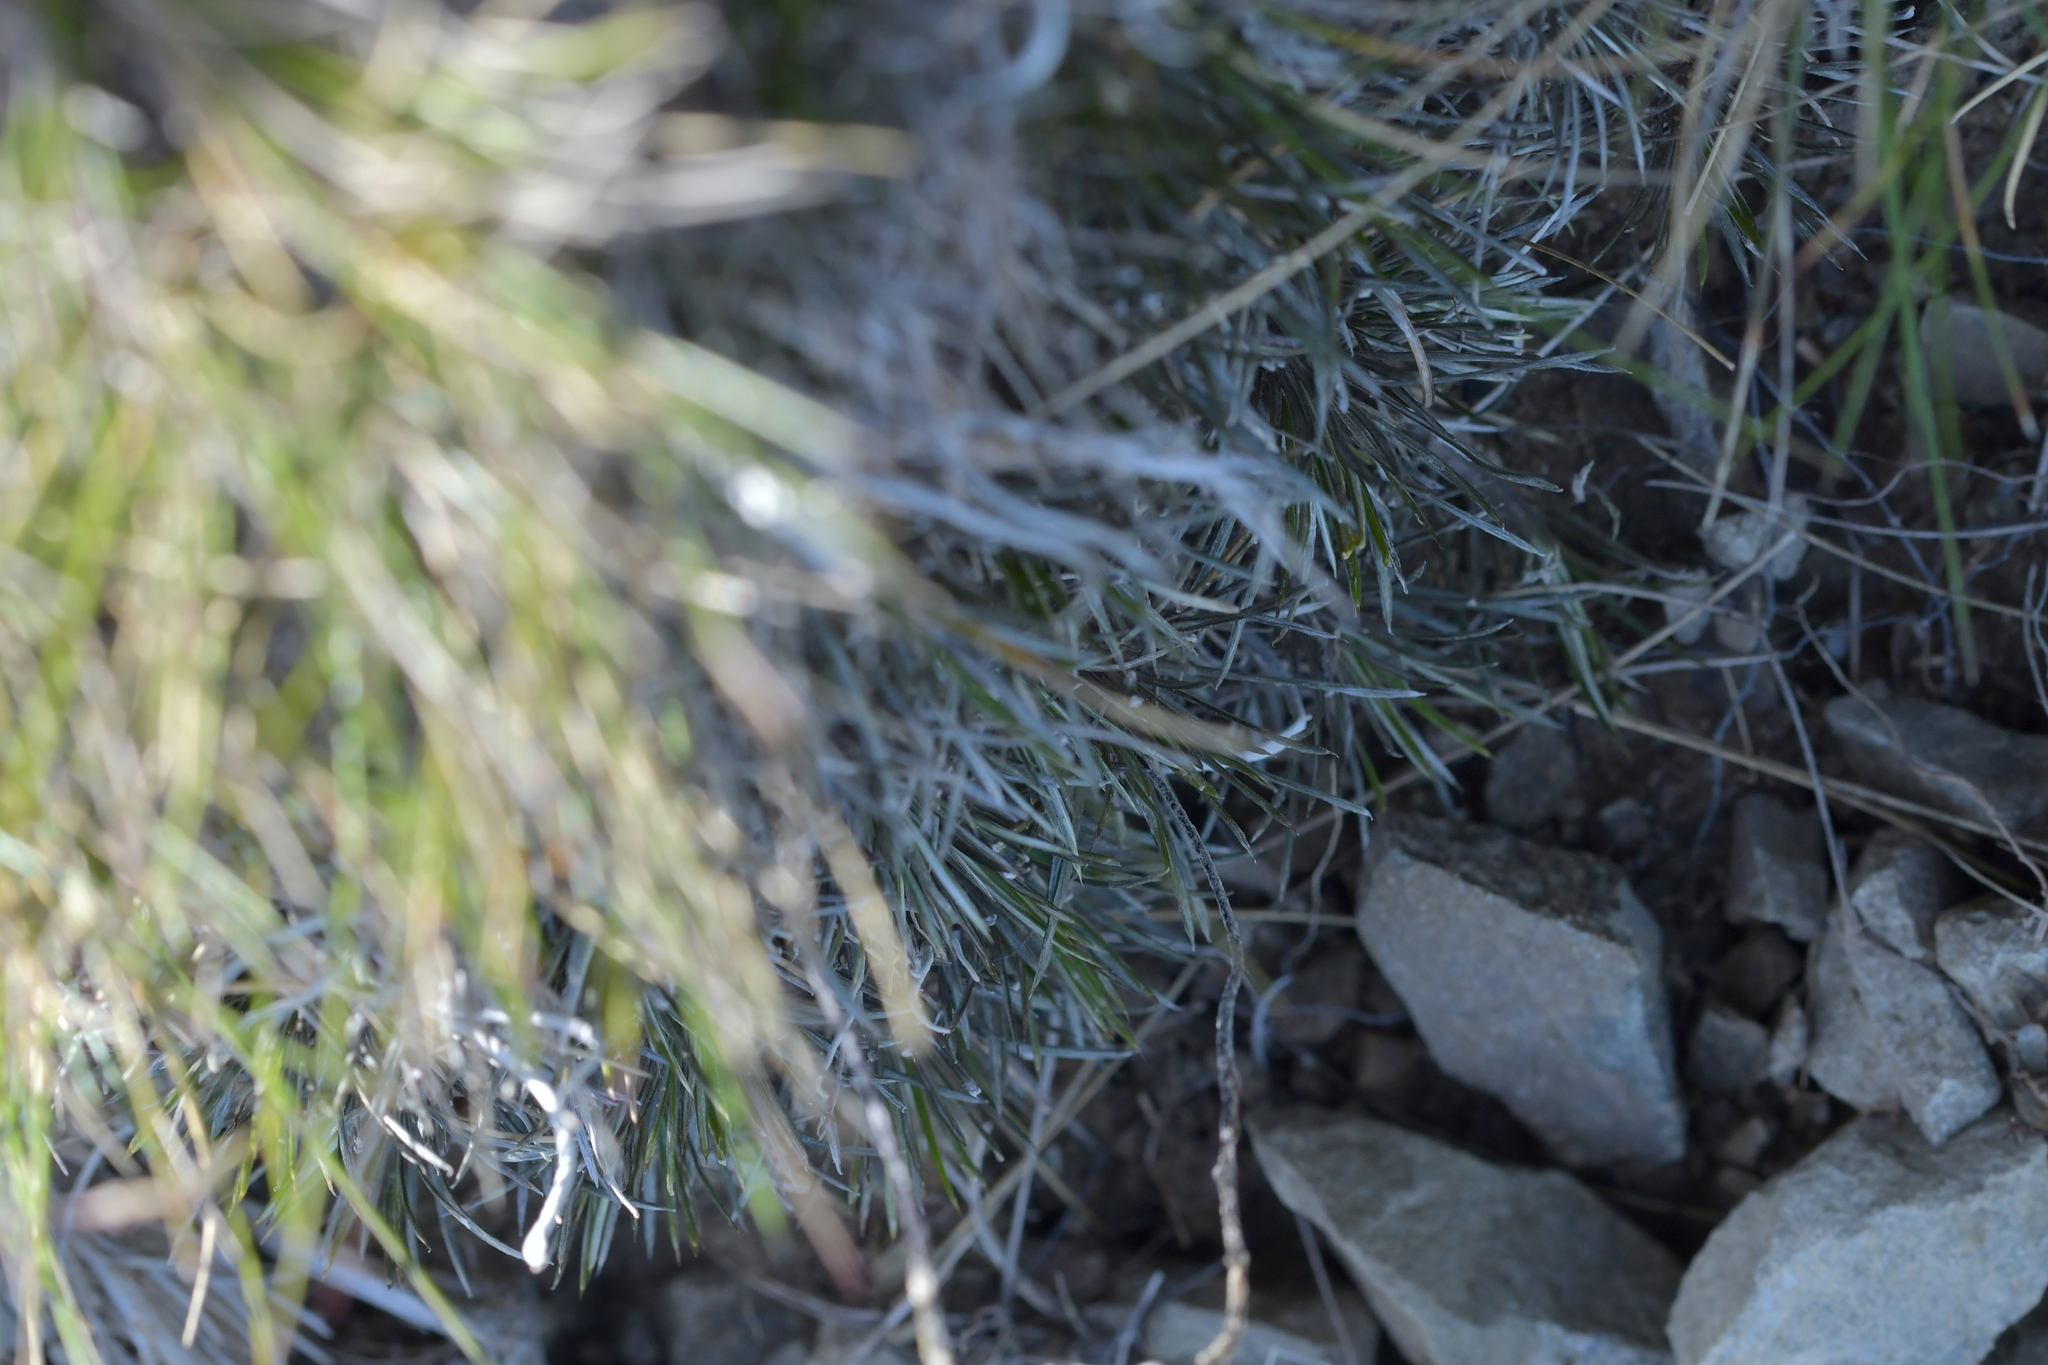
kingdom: Plantae
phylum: Tracheophyta
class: Magnoliopsida
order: Asterales
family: Asteraceae
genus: Celmisia
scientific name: Celmisia laricifolia
